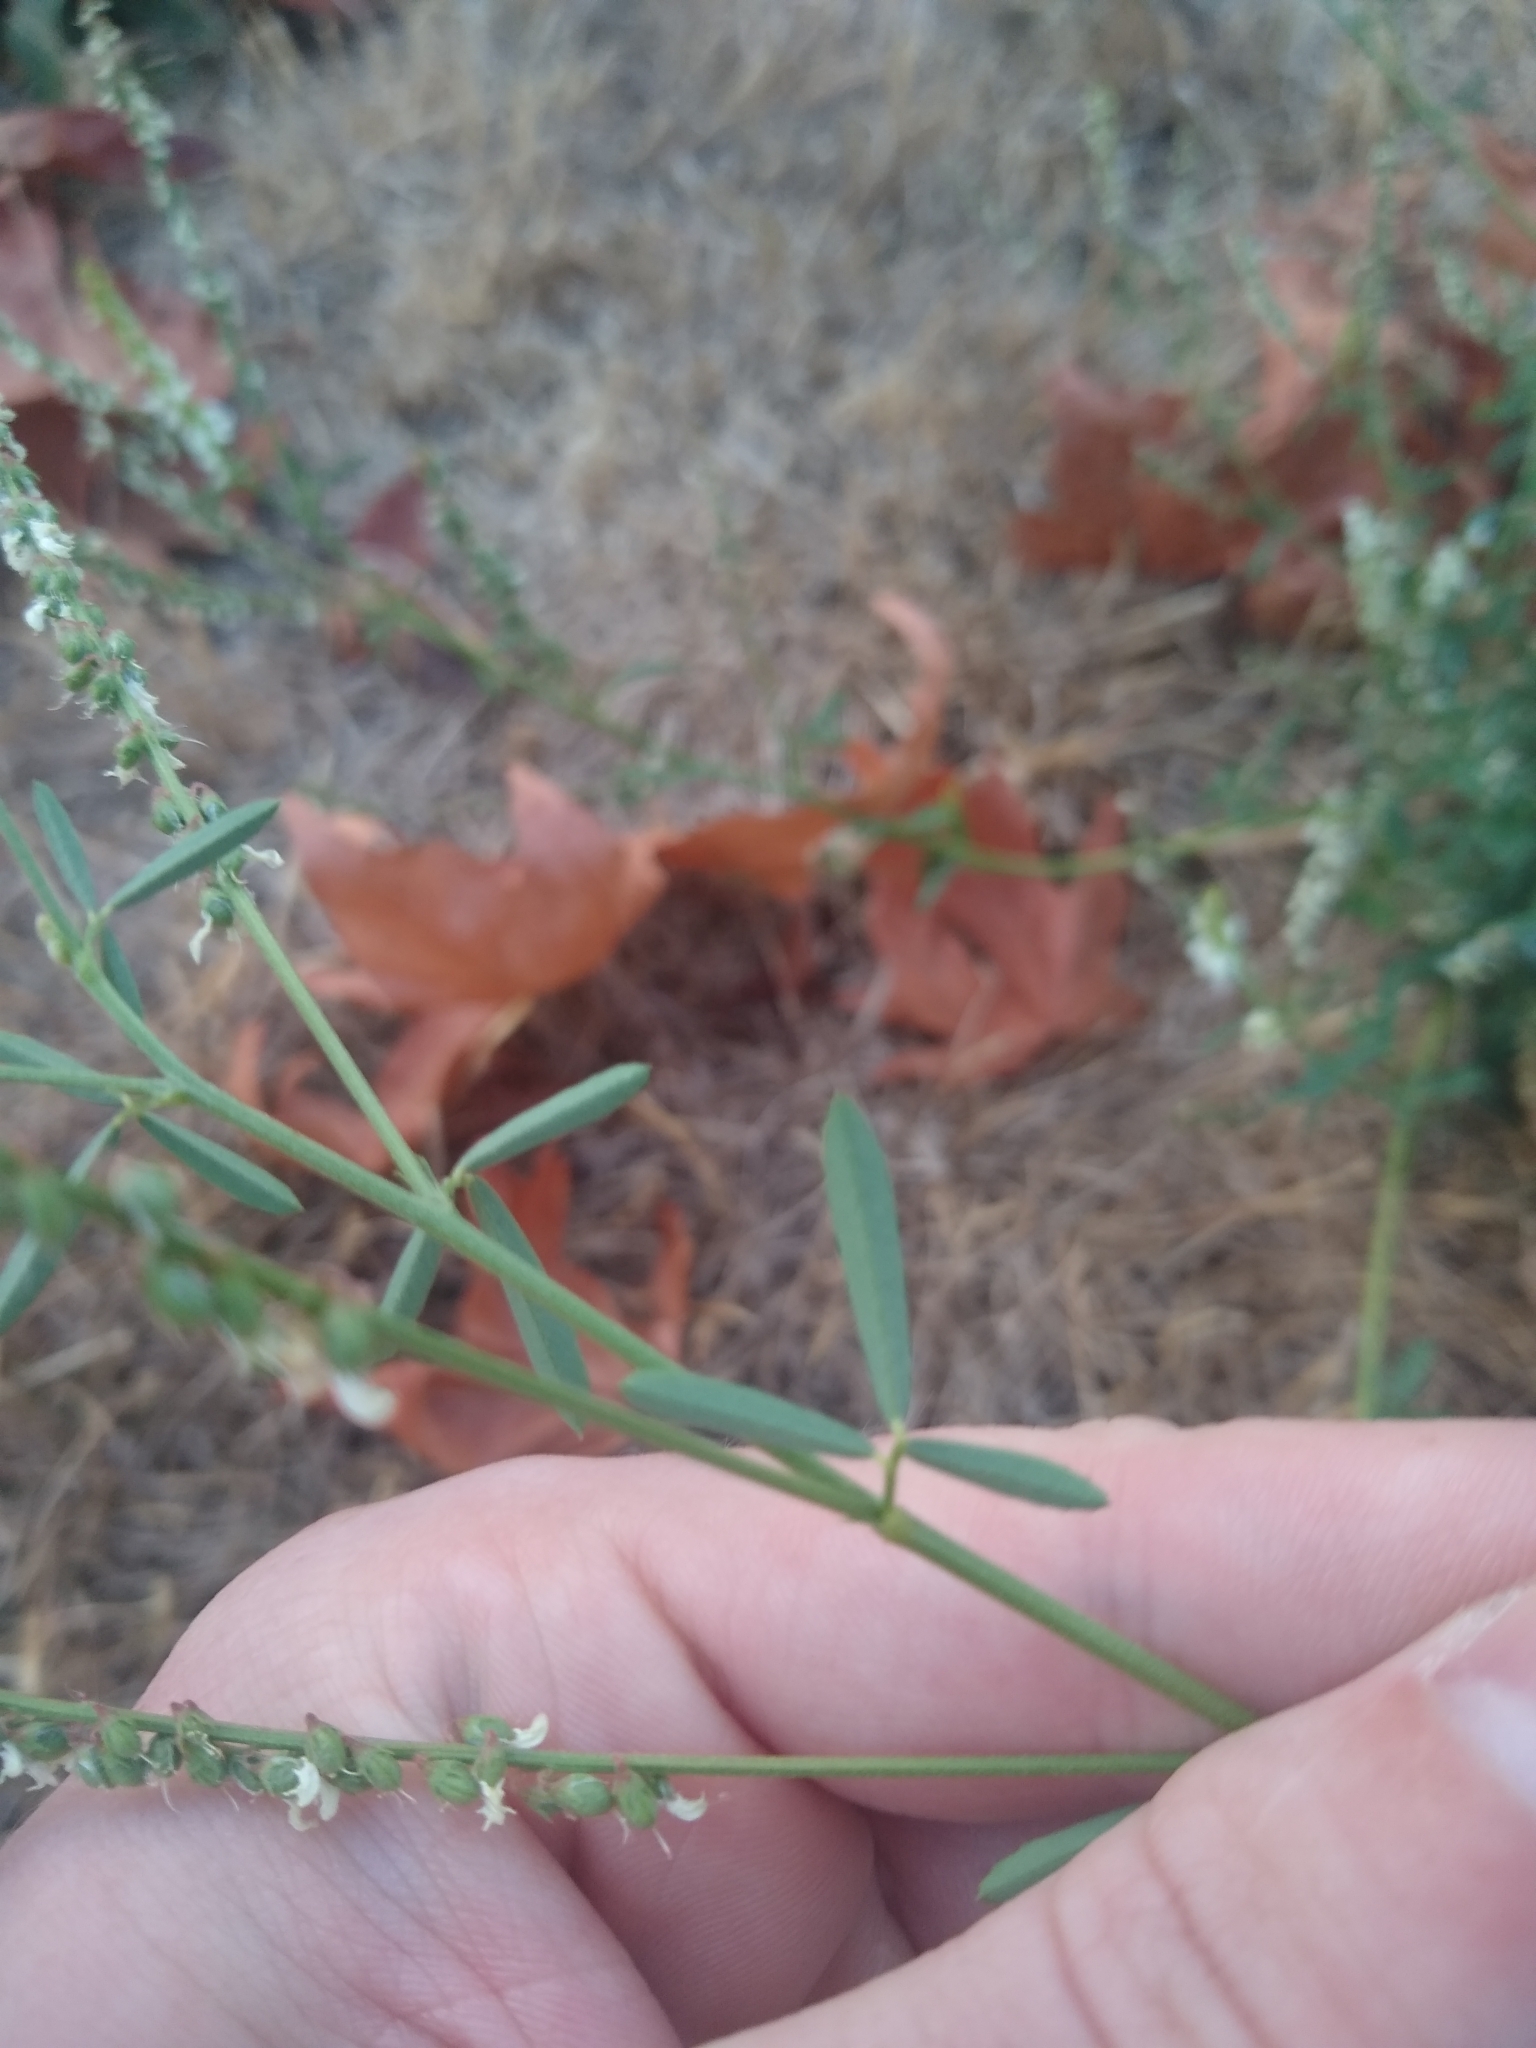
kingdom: Plantae
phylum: Tracheophyta
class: Magnoliopsida
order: Fabales
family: Fabaceae
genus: Melilotus
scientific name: Melilotus albus
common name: White melilot
